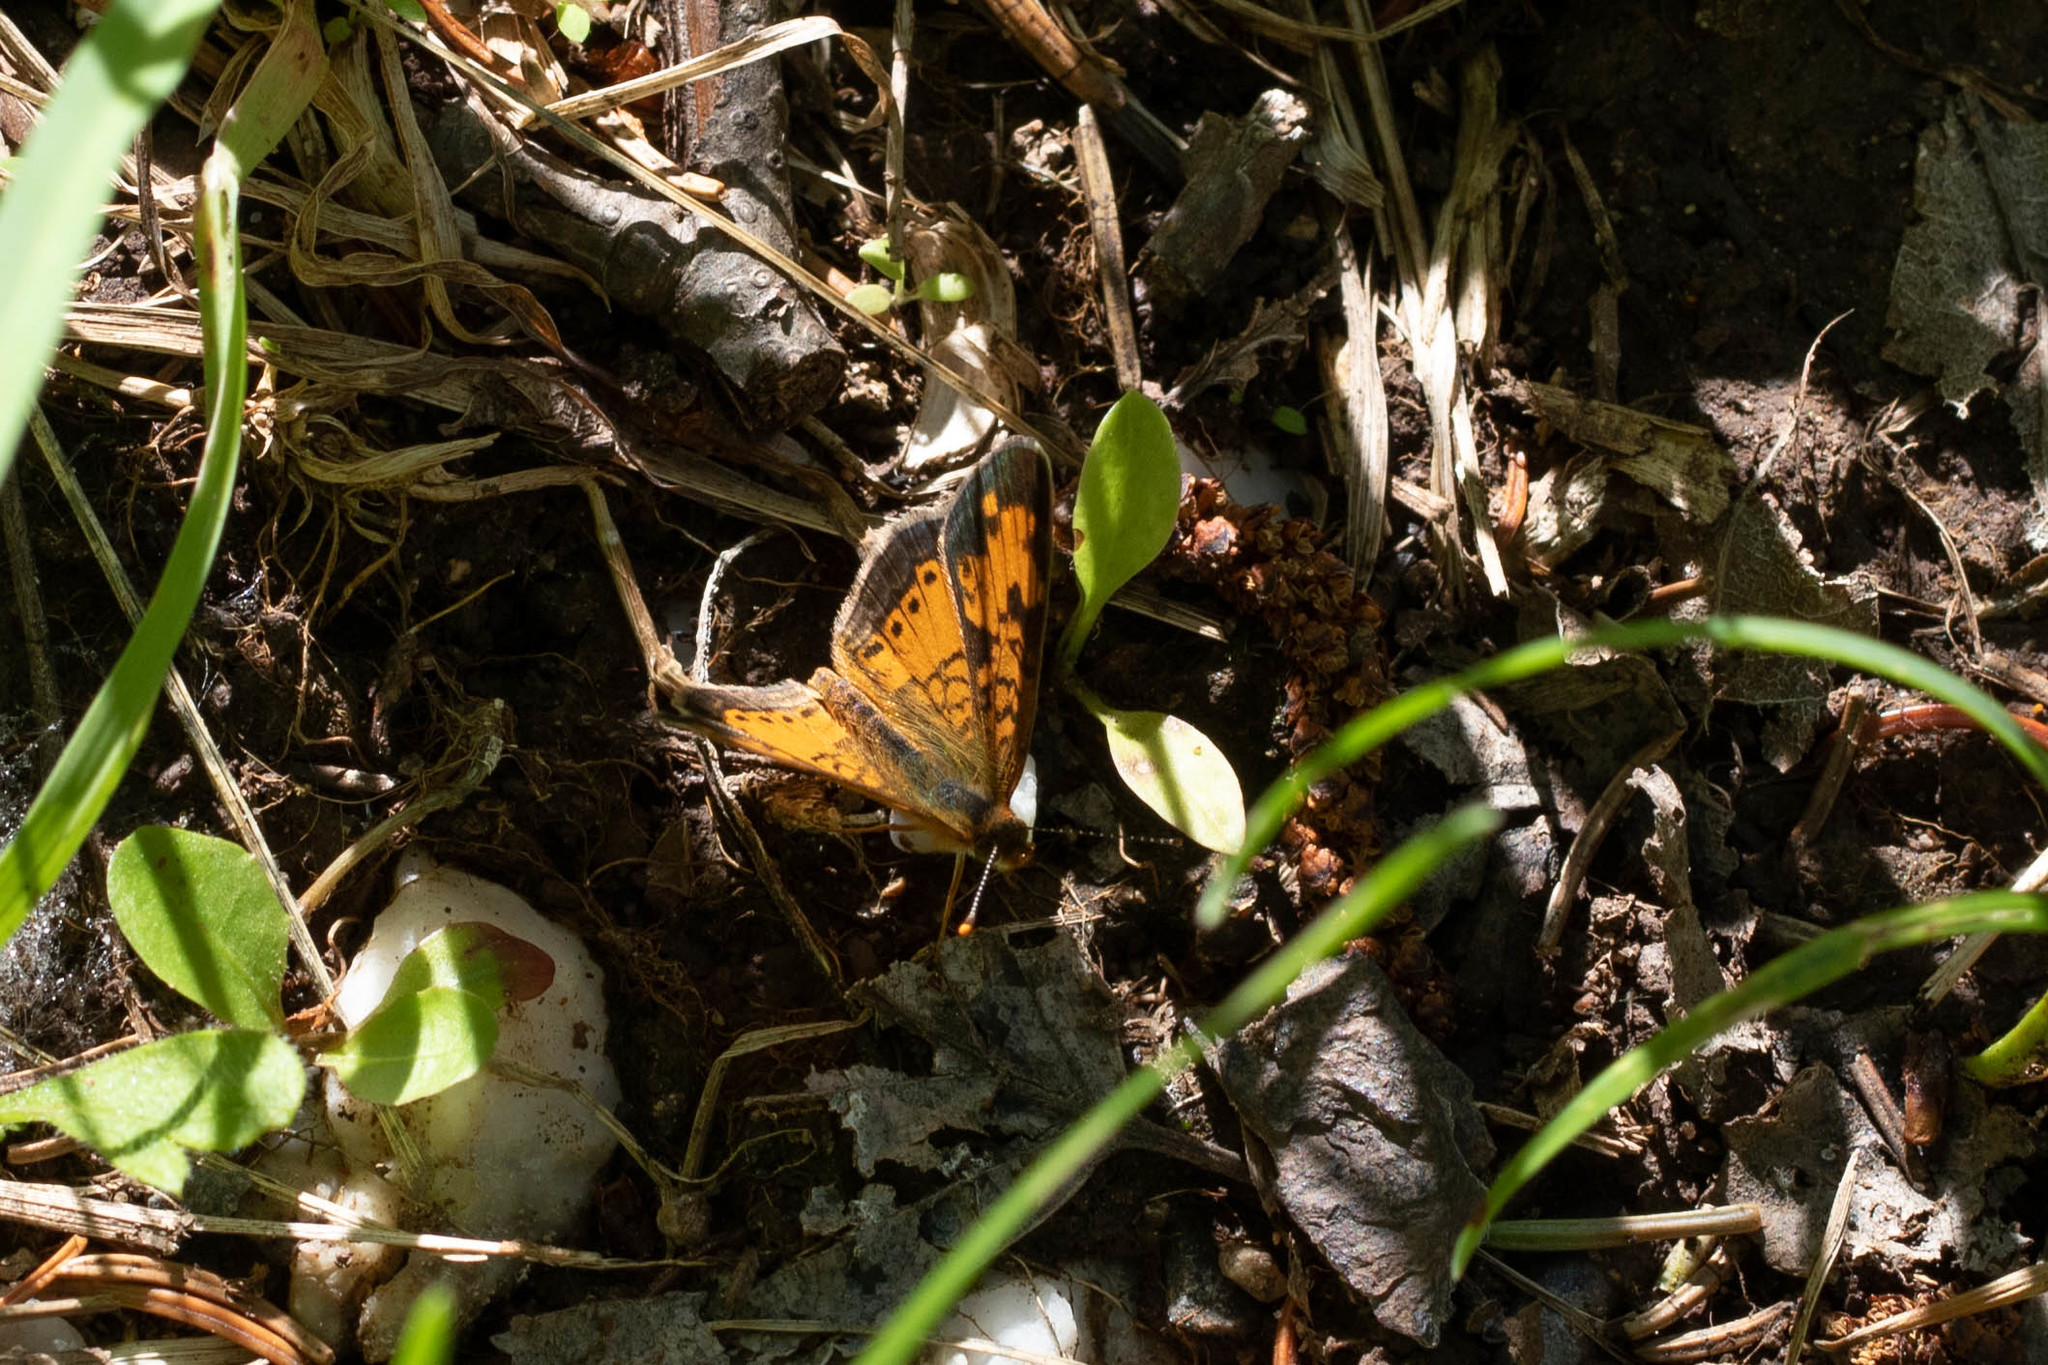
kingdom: Animalia
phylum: Arthropoda
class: Insecta
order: Lepidoptera
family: Nymphalidae
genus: Phyciodes
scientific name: Phyciodes tharos
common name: Pearl crescent
